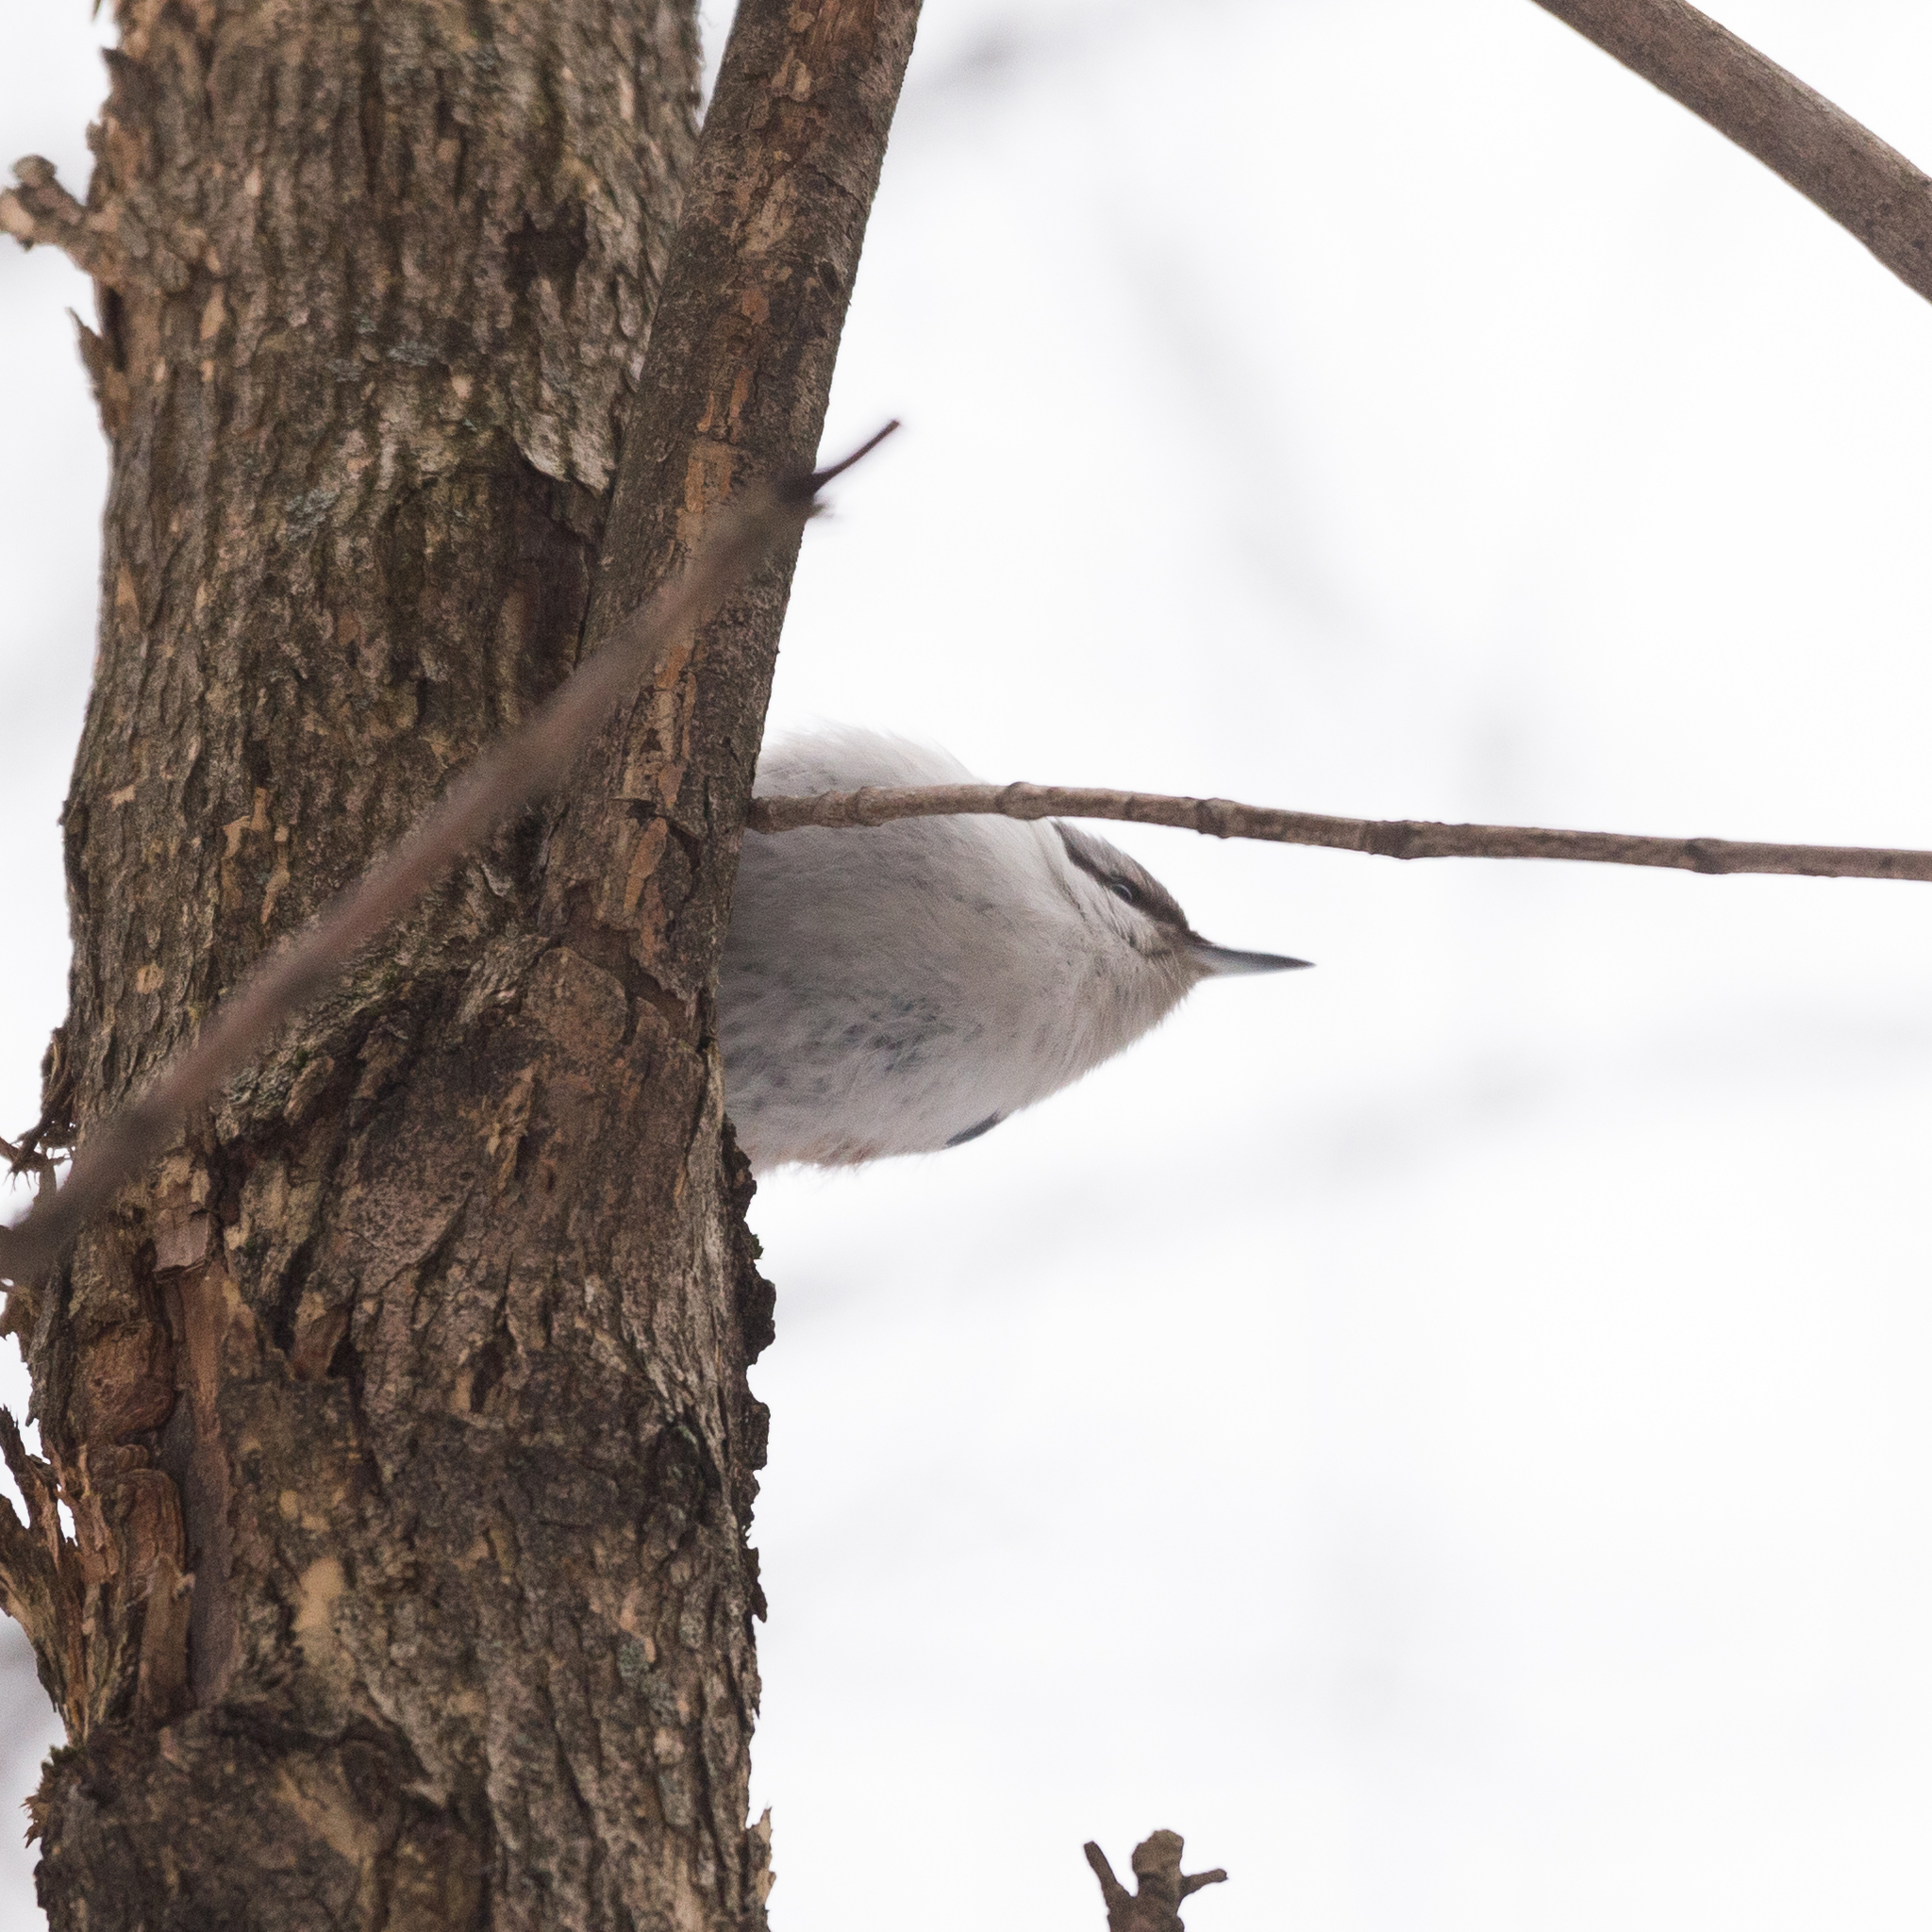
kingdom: Animalia
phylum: Chordata
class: Aves
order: Passeriformes
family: Sittidae
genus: Sitta
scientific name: Sitta europaea
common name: Eurasian nuthatch
